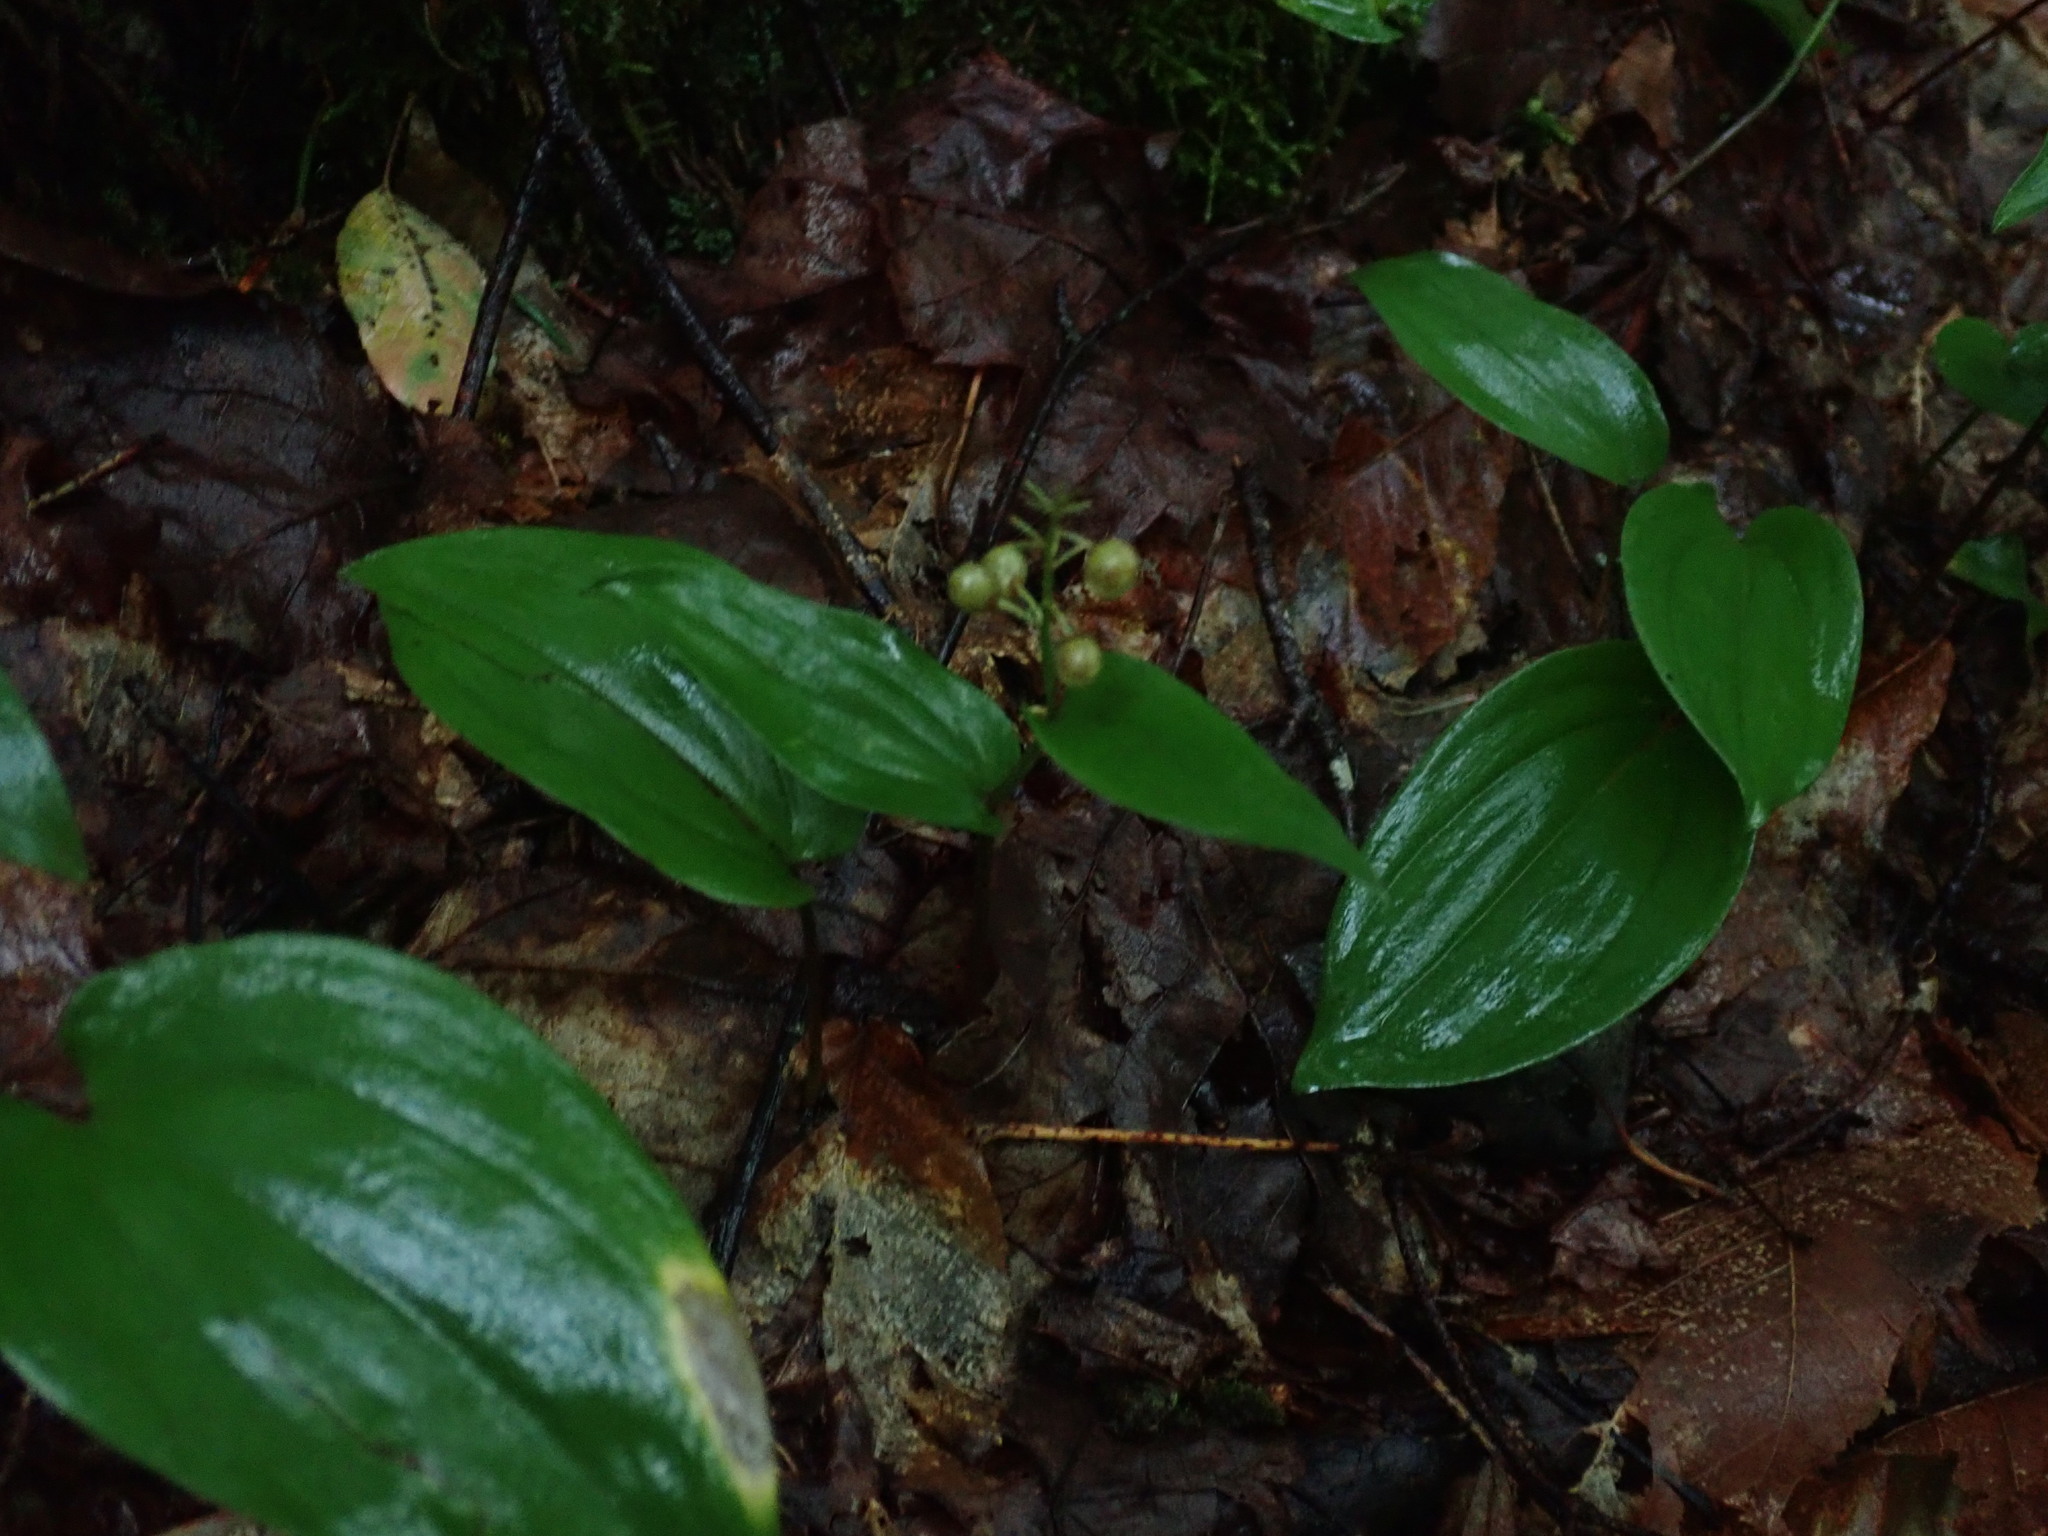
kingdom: Plantae
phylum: Tracheophyta
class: Liliopsida
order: Asparagales
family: Asparagaceae
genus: Maianthemum
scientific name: Maianthemum canadense
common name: False lily-of-the-valley
